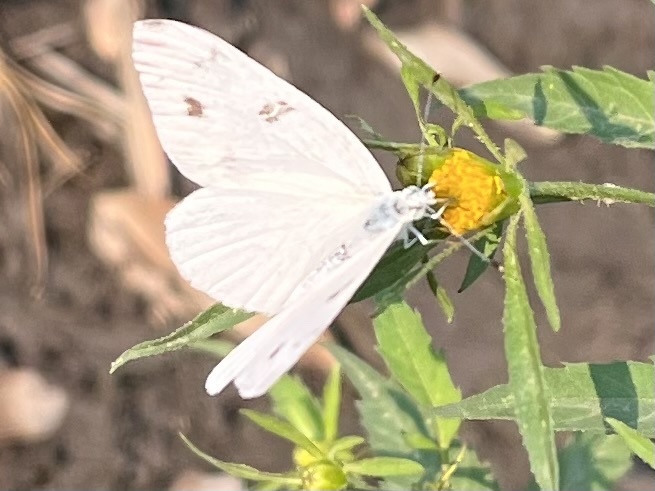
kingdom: Animalia
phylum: Arthropoda
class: Insecta
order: Lepidoptera
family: Pieridae
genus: Pontia
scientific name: Pontia protodice
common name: Checkered white
